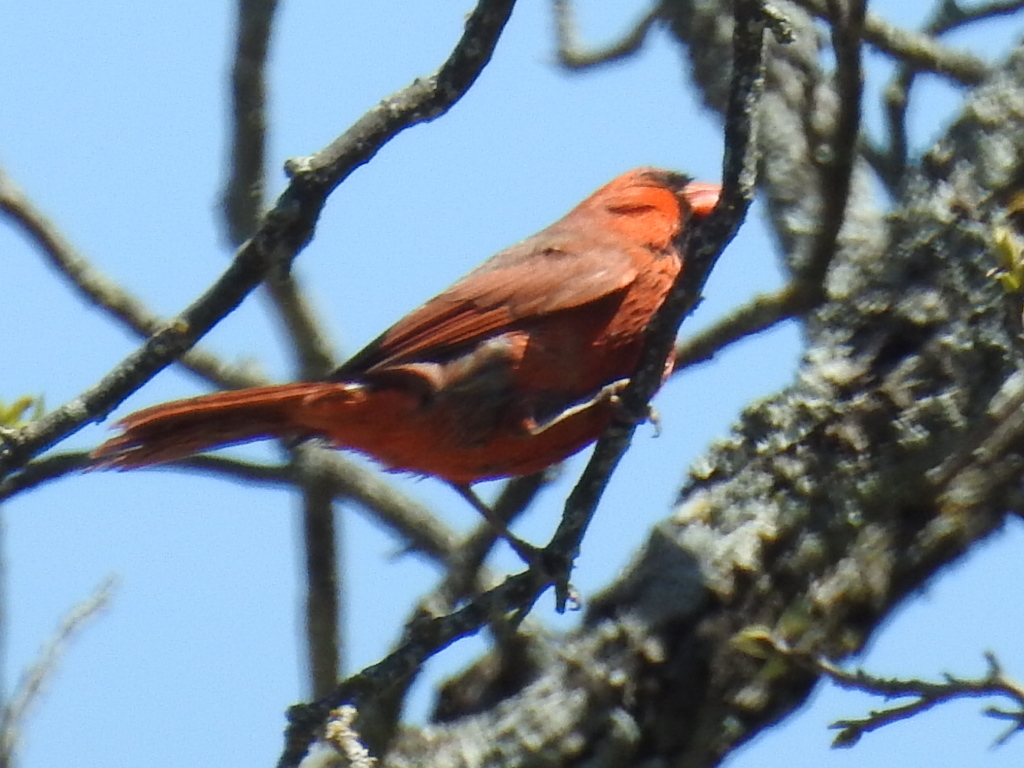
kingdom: Animalia
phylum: Chordata
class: Aves
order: Passeriformes
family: Cardinalidae
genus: Cardinalis
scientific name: Cardinalis cardinalis
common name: Northern cardinal
